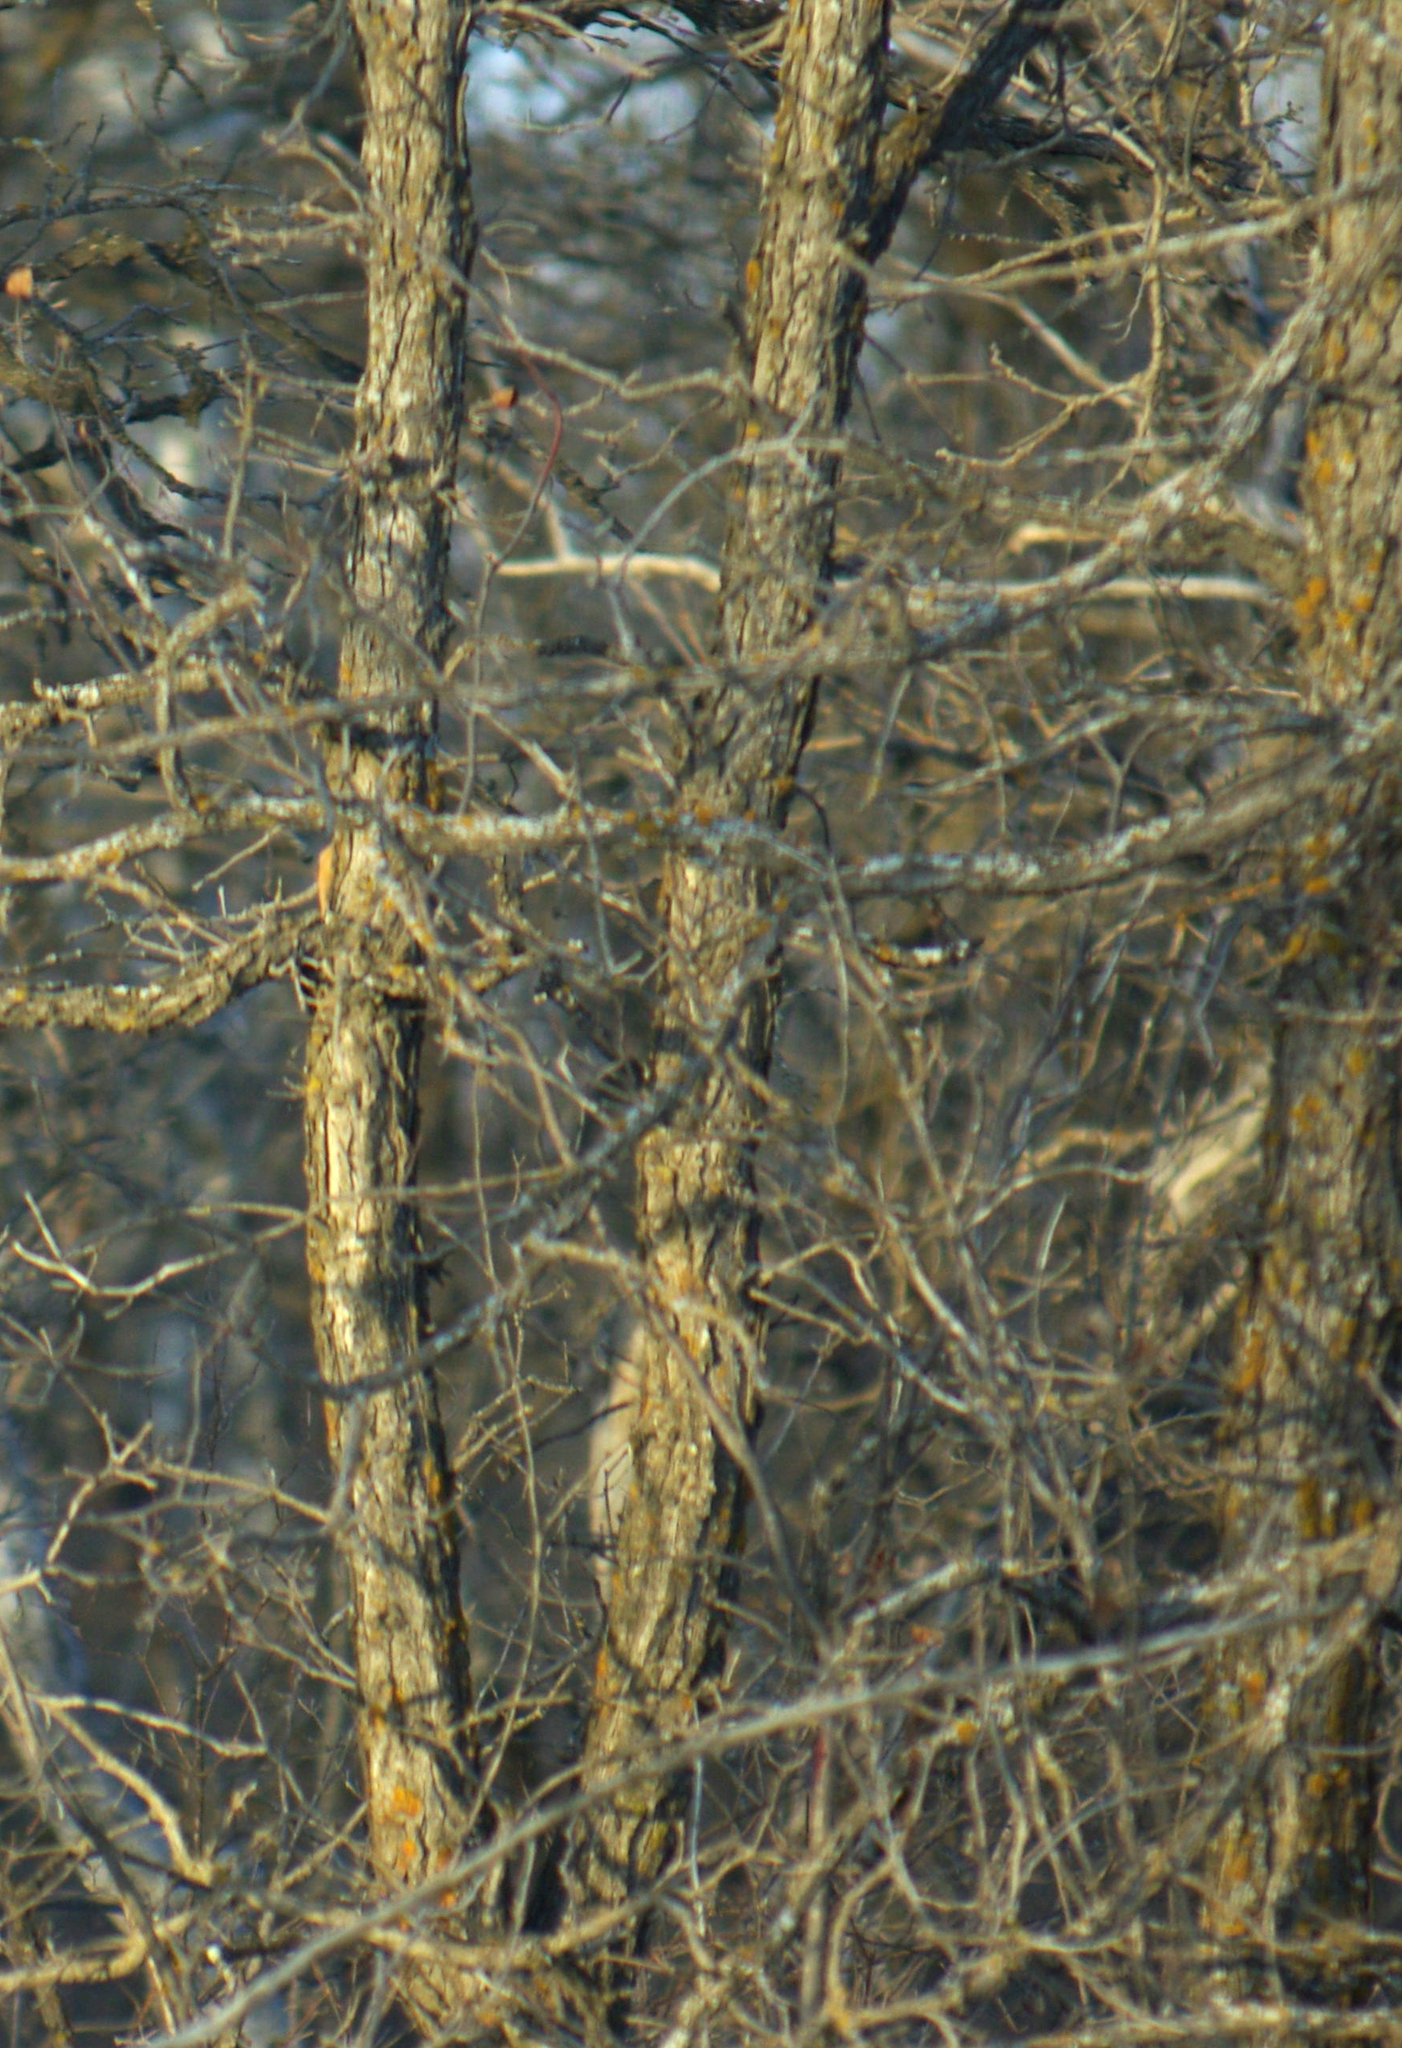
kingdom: Plantae
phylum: Tracheophyta
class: Magnoliopsida
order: Fagales
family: Fagaceae
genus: Quercus
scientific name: Quercus macrocarpa
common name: Bur oak
